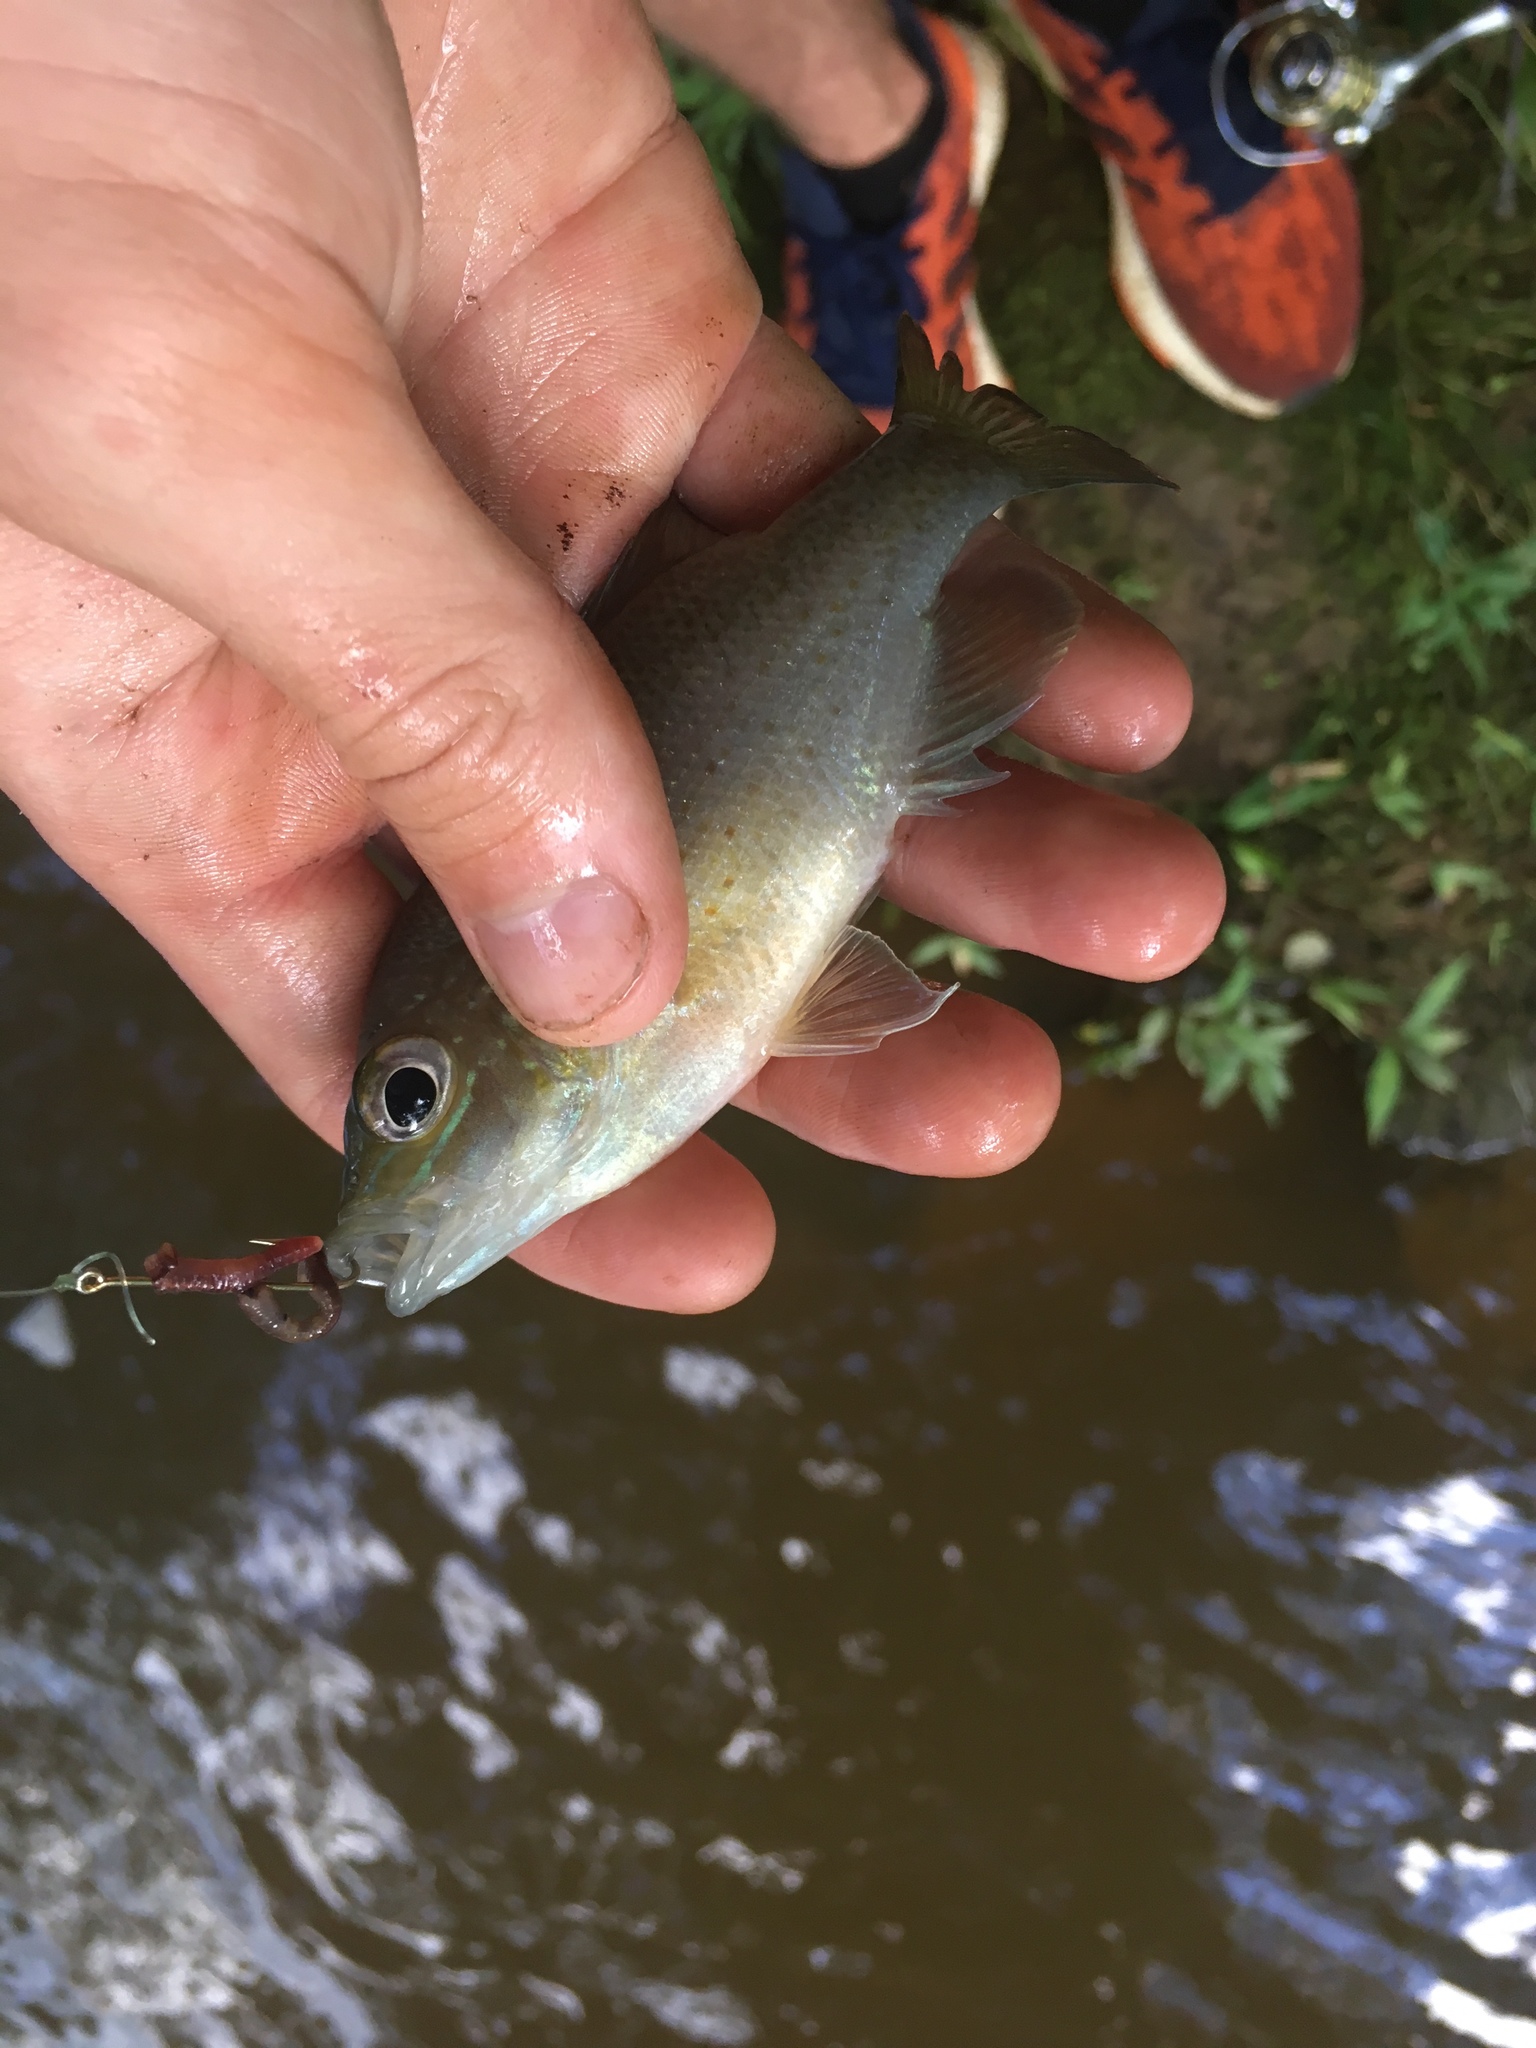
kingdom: Animalia
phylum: Chordata
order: Perciformes
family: Centrarchidae
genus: Lepomis
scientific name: Lepomis auritus
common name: Redbreast sunfish
